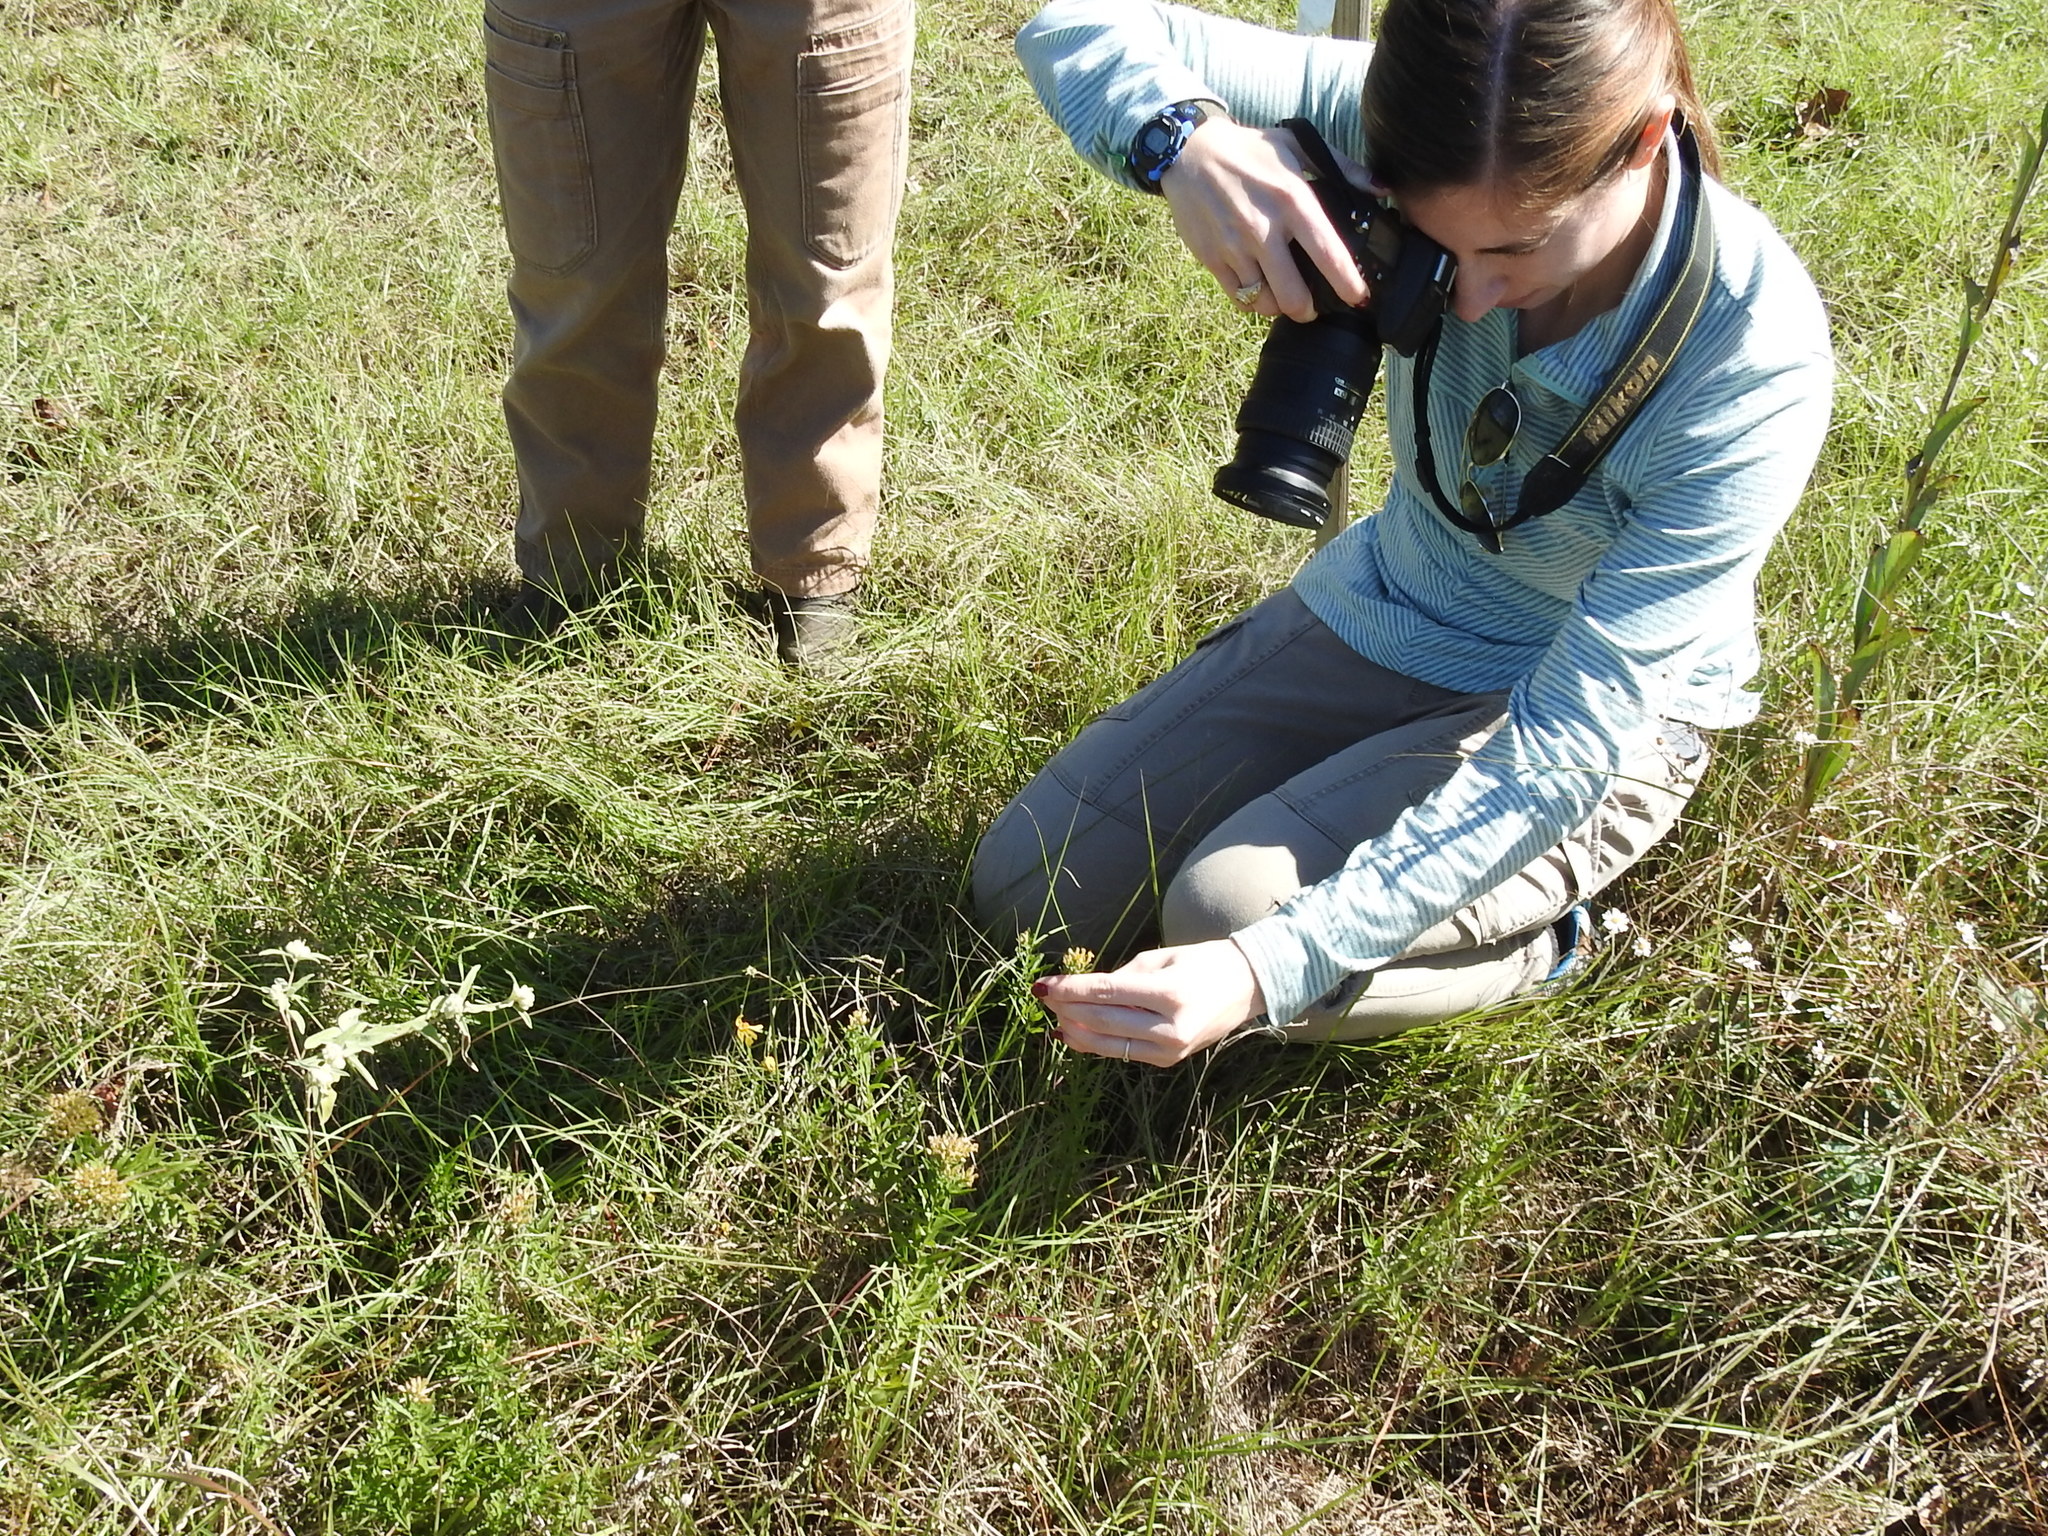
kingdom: Plantae
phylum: Tracheophyta
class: Magnoliopsida
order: Asterales
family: Asteraceae
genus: Euthamia
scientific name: Euthamia leptocephala
